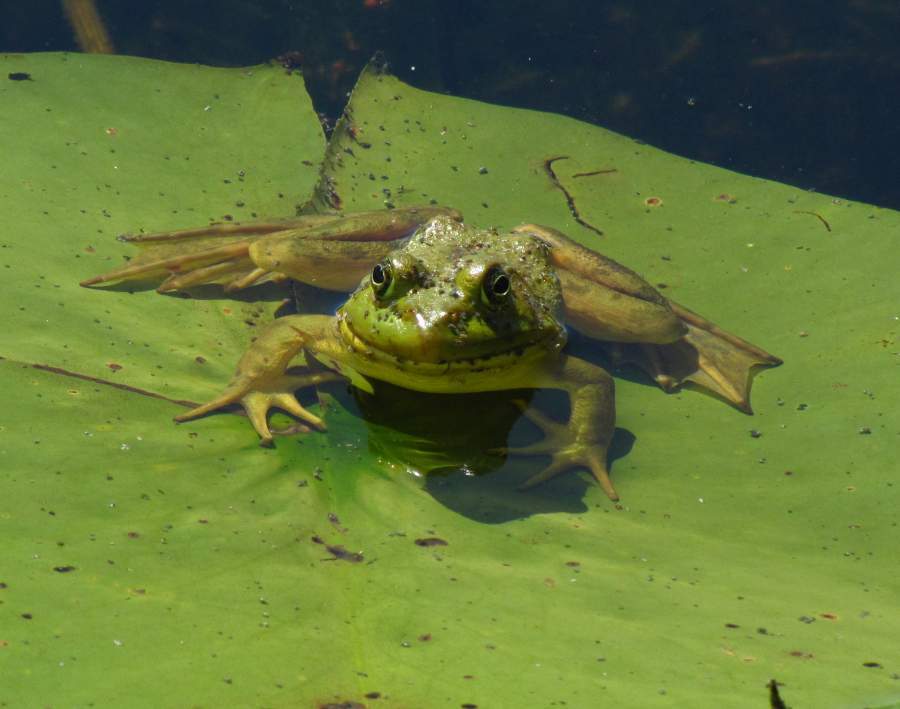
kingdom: Animalia
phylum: Chordata
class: Amphibia
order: Anura
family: Ranidae
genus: Lithobates
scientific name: Lithobates catesbeianus
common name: American bullfrog
